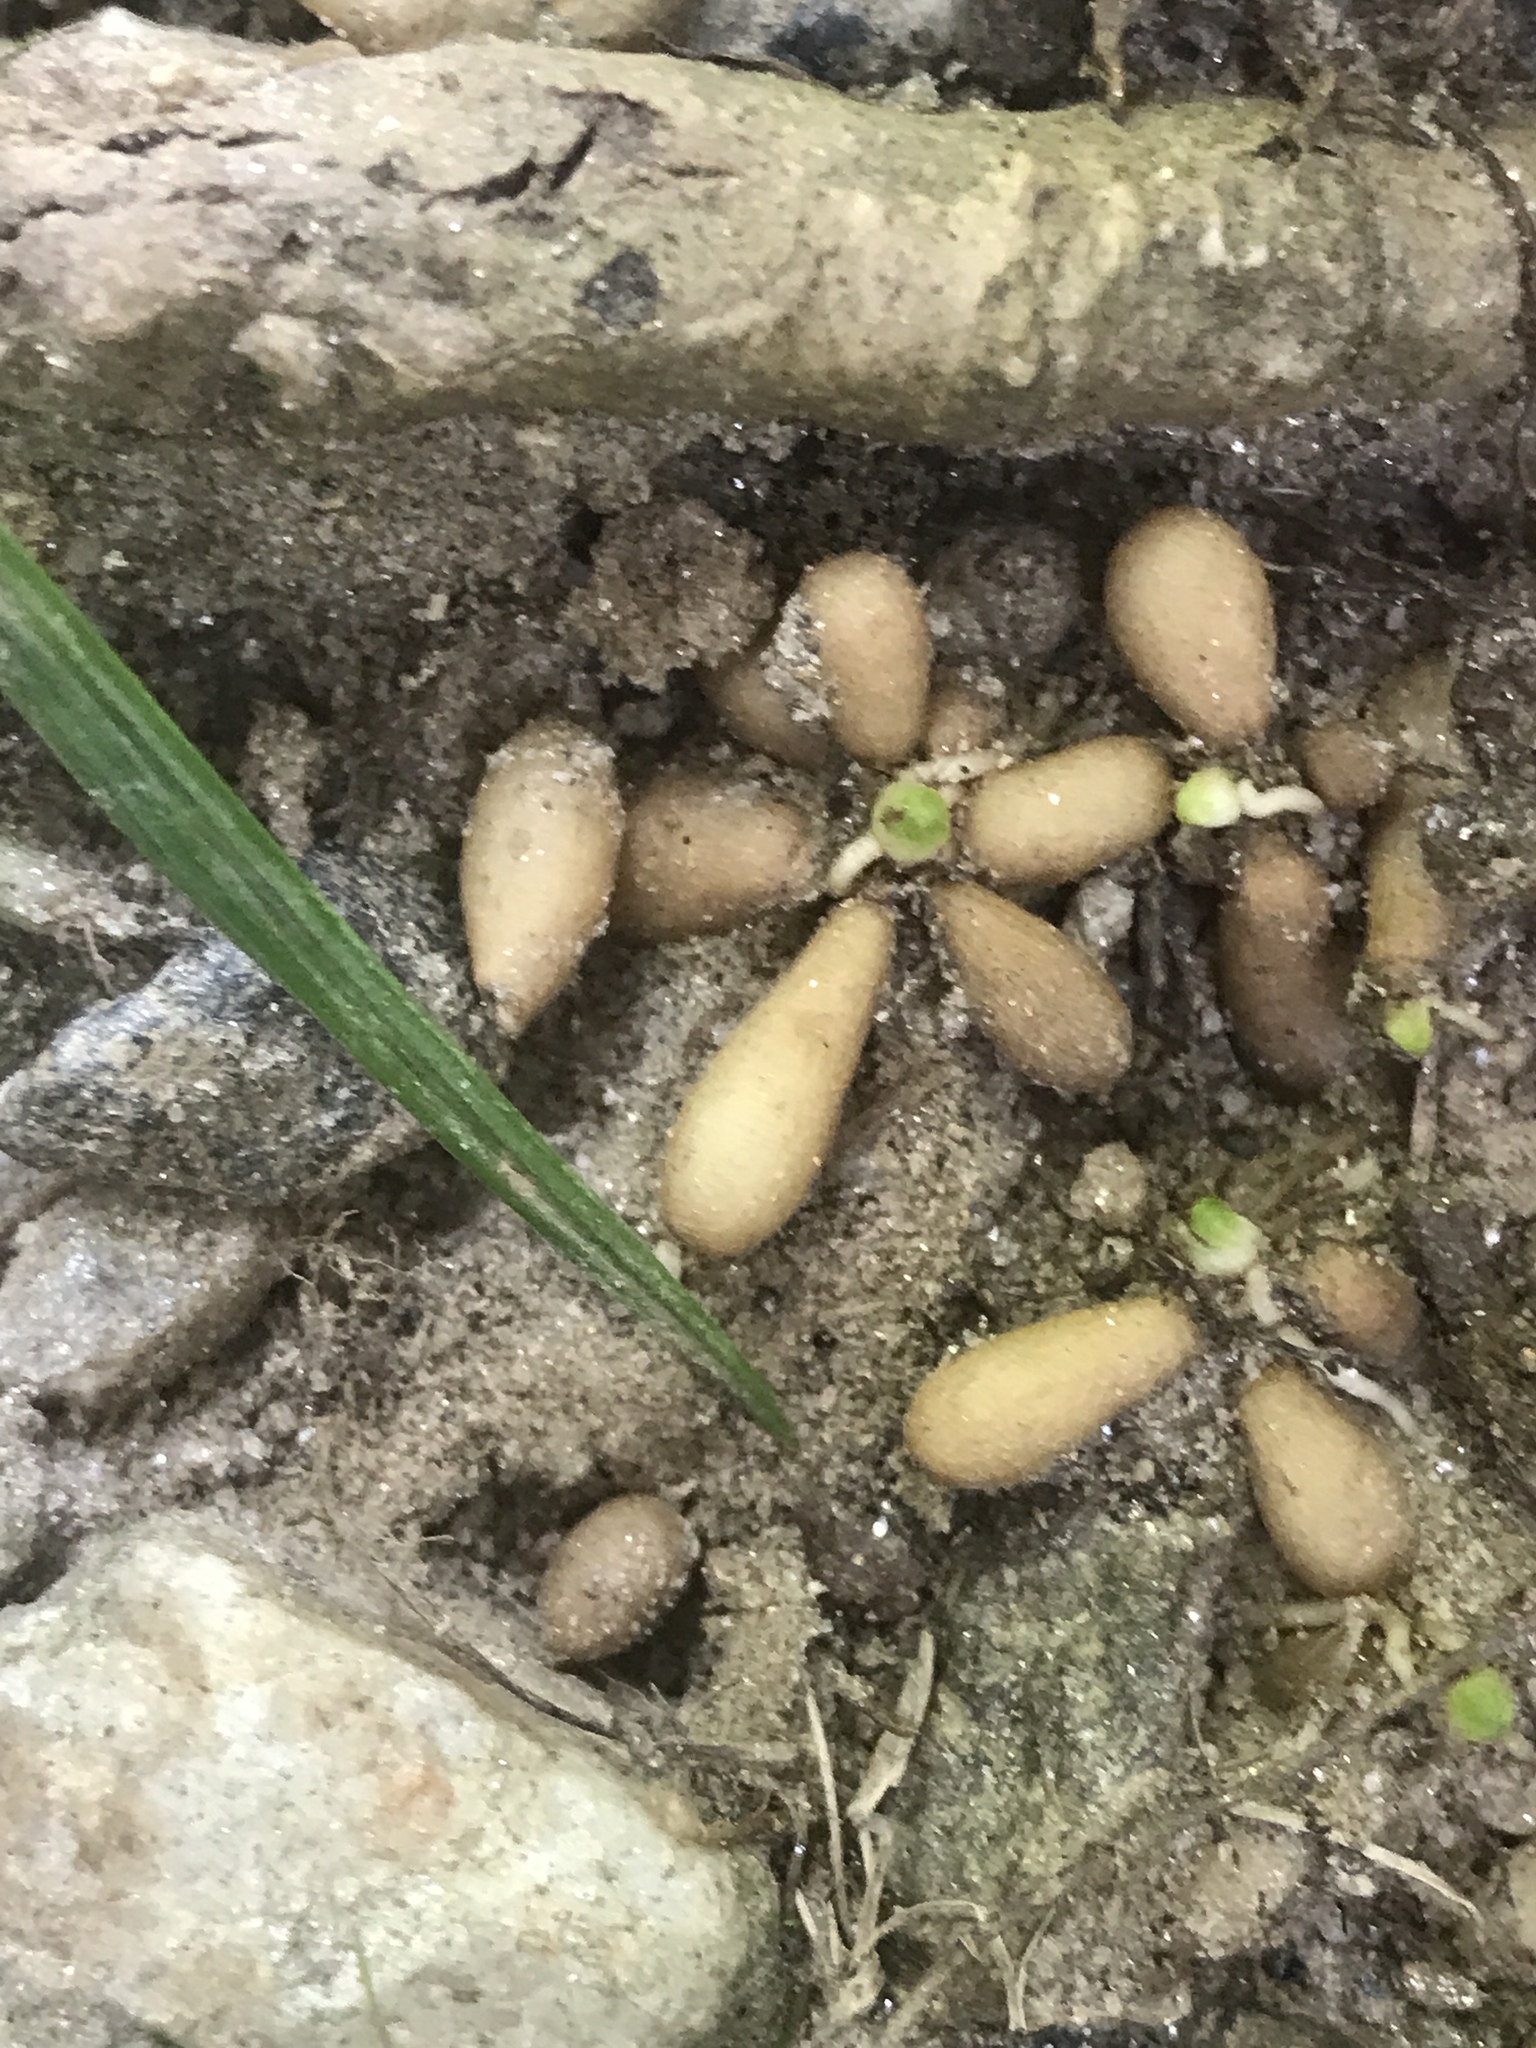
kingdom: Plantae
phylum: Tracheophyta
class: Magnoliopsida
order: Ranunculales
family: Ranunculaceae
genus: Ficaria
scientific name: Ficaria verna
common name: Lesser celandine
